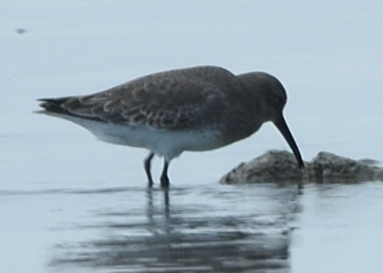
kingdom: Animalia
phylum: Chordata
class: Aves
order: Charadriiformes
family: Scolopacidae
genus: Calidris
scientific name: Calidris alpina
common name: Dunlin
